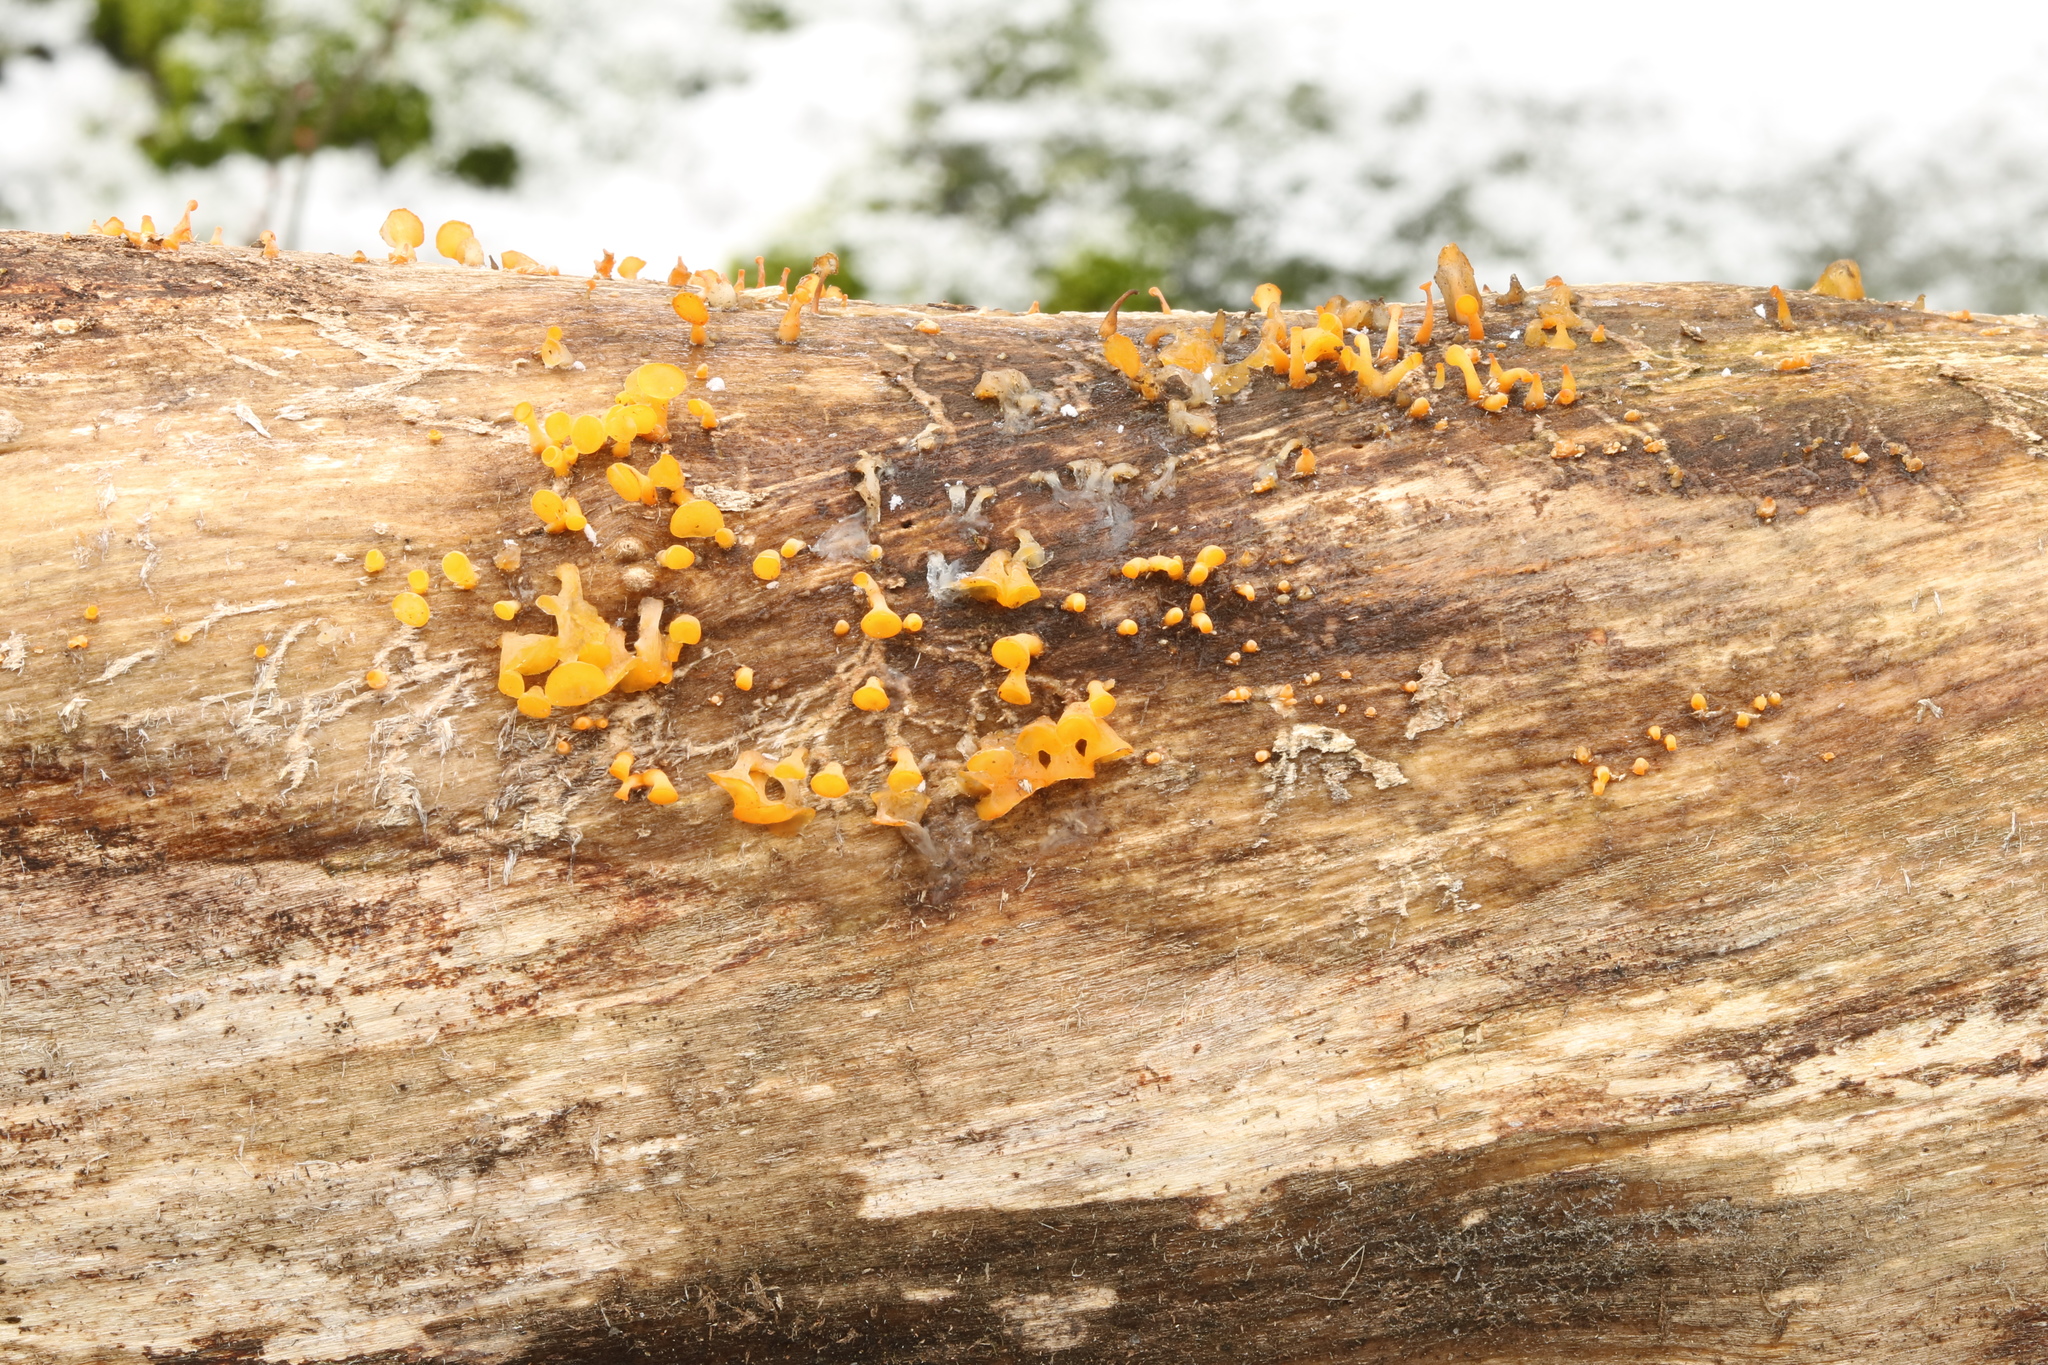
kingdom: Fungi
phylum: Basidiomycota
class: Dacrymycetes
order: Dacrymycetales
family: Dacrymycetaceae
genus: Guepiniopsis
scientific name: Guepiniopsis buccina
